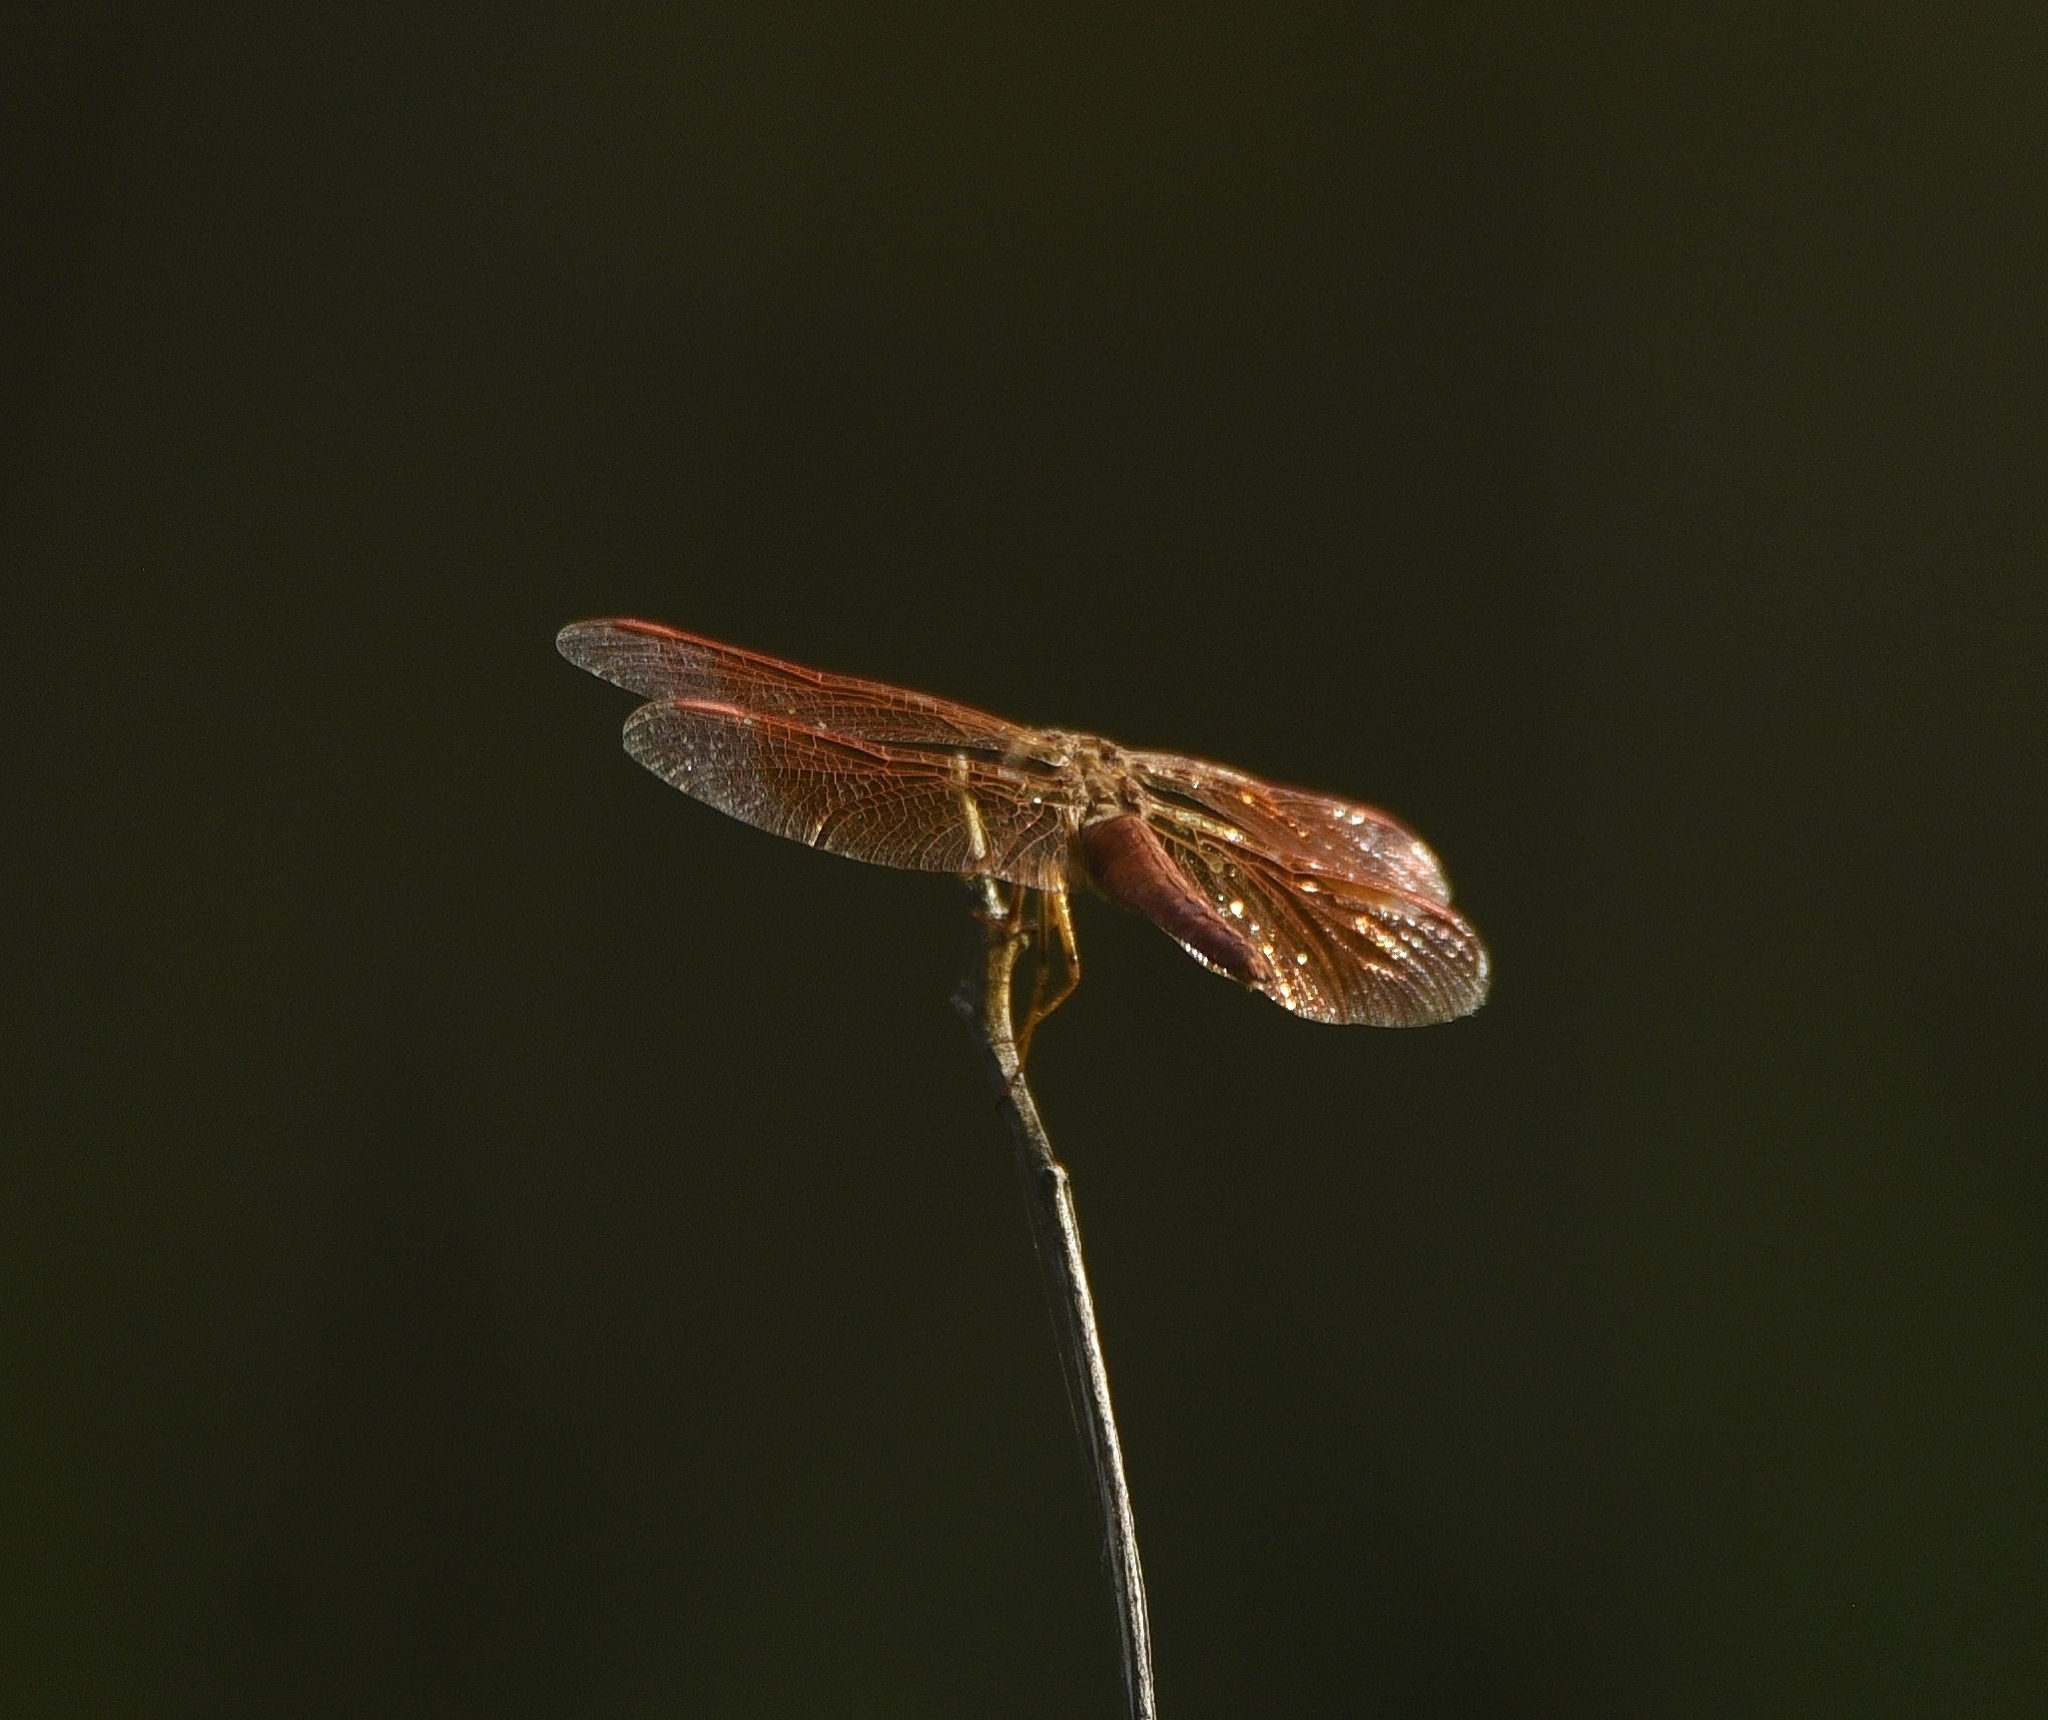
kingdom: Animalia
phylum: Arthropoda
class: Insecta
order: Odonata
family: Libellulidae
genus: Brachythemis
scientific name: Brachythemis contaminata
